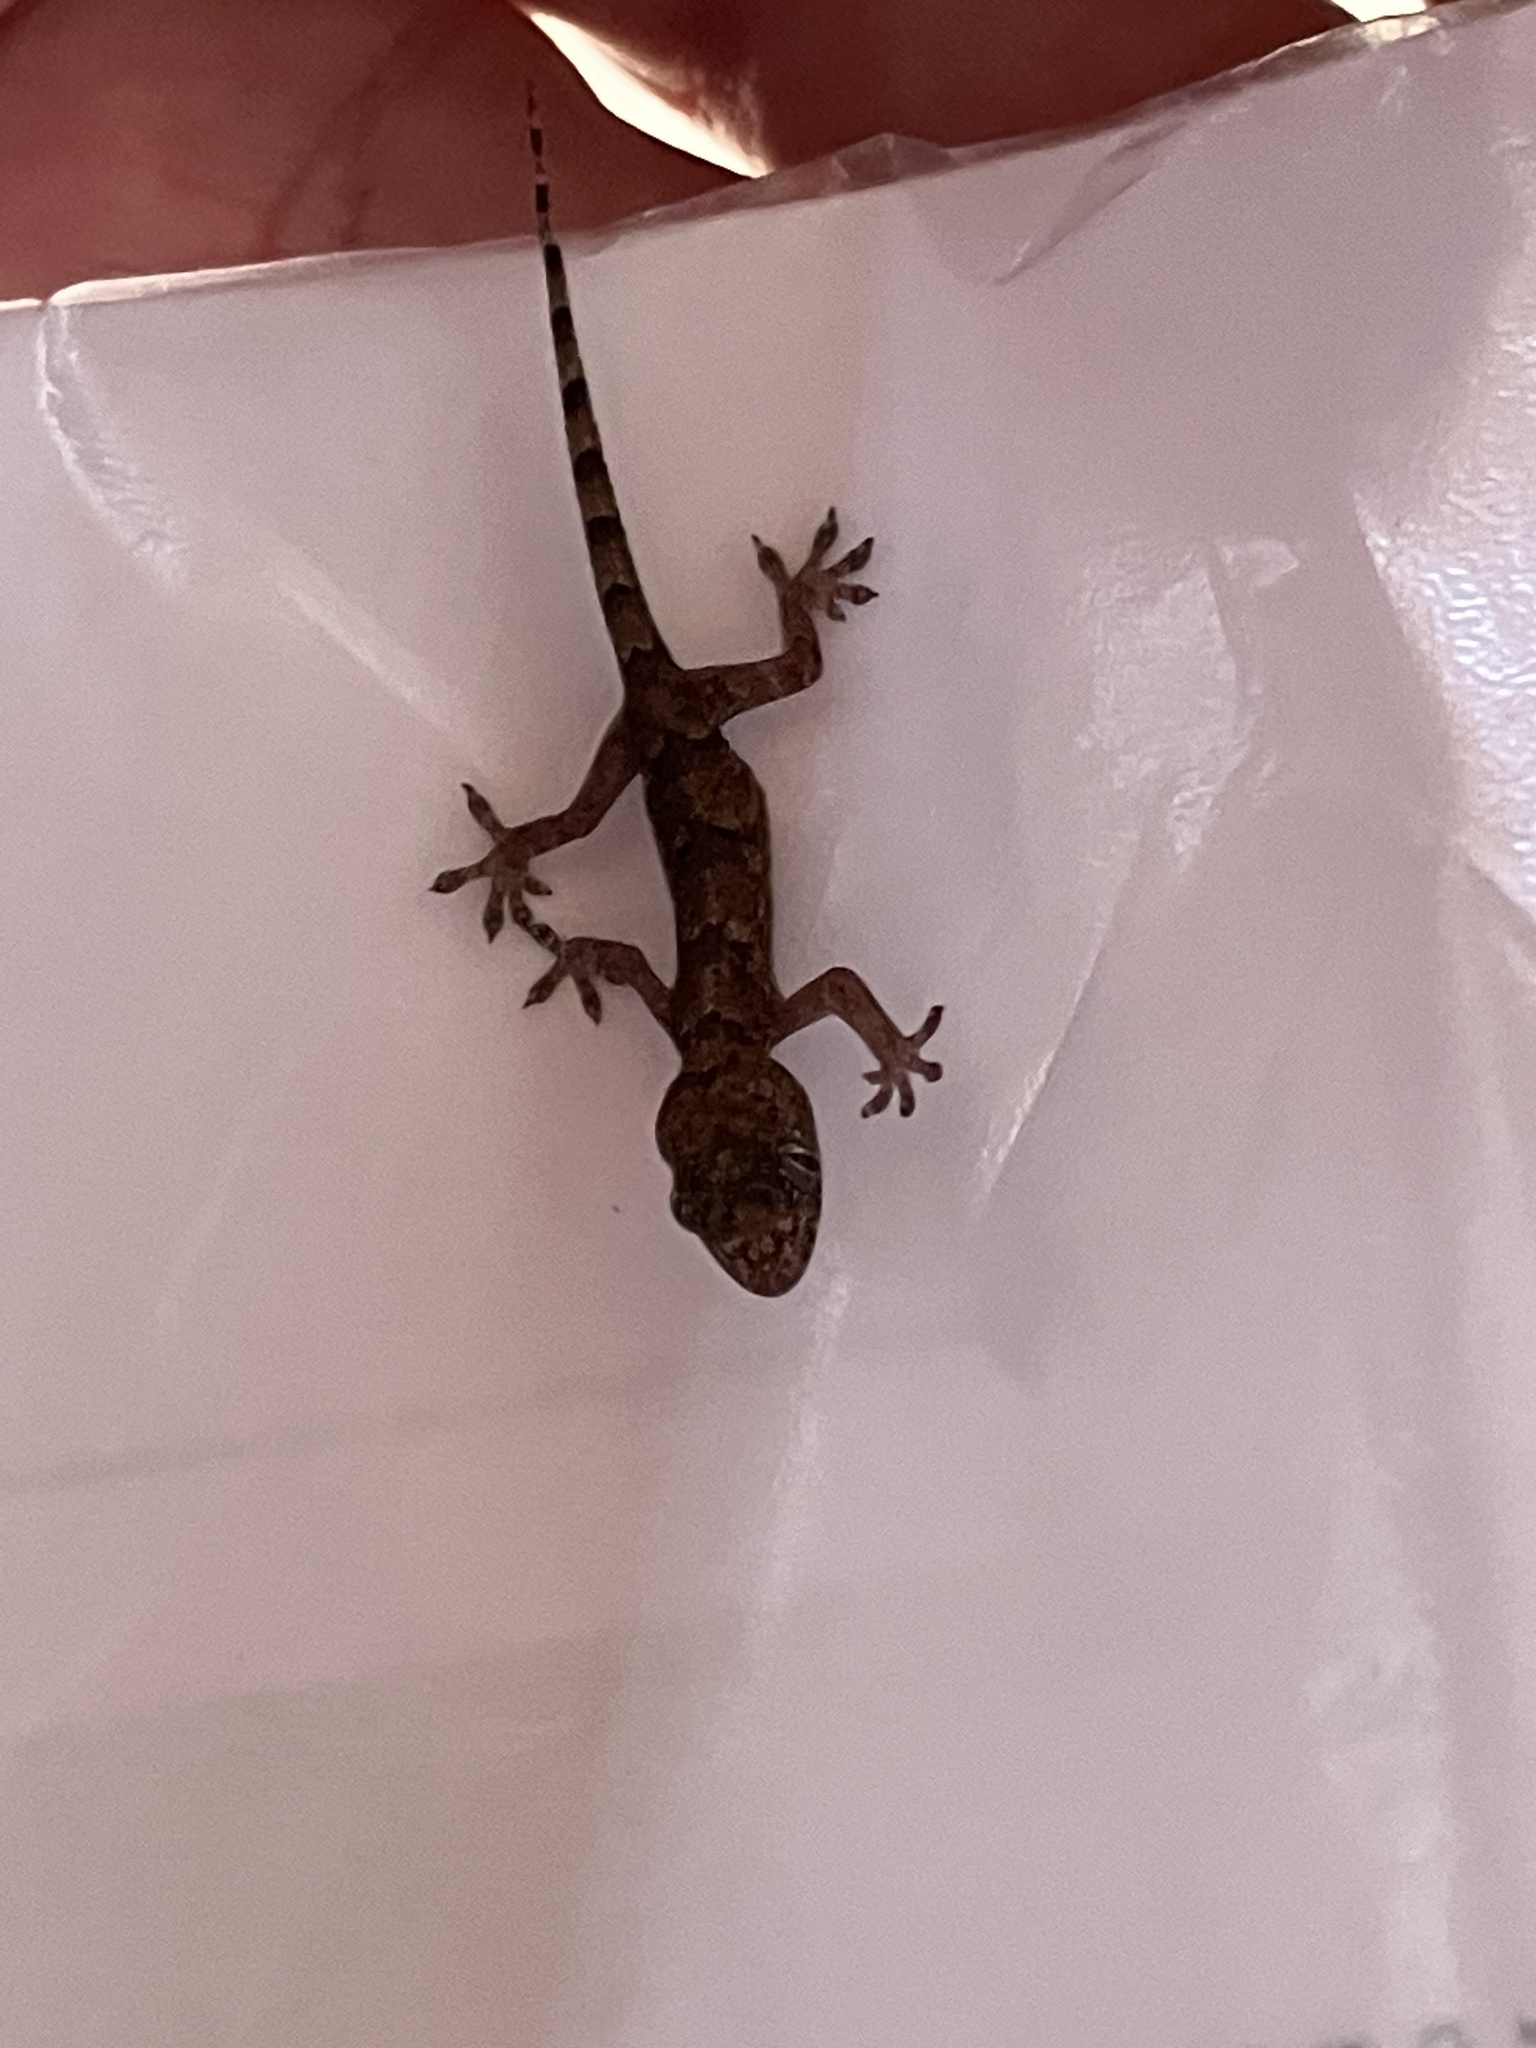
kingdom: Animalia
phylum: Chordata
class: Squamata
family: Gekkonidae
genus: Hemidactylus
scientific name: Hemidactylus mabouia
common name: House gecko
